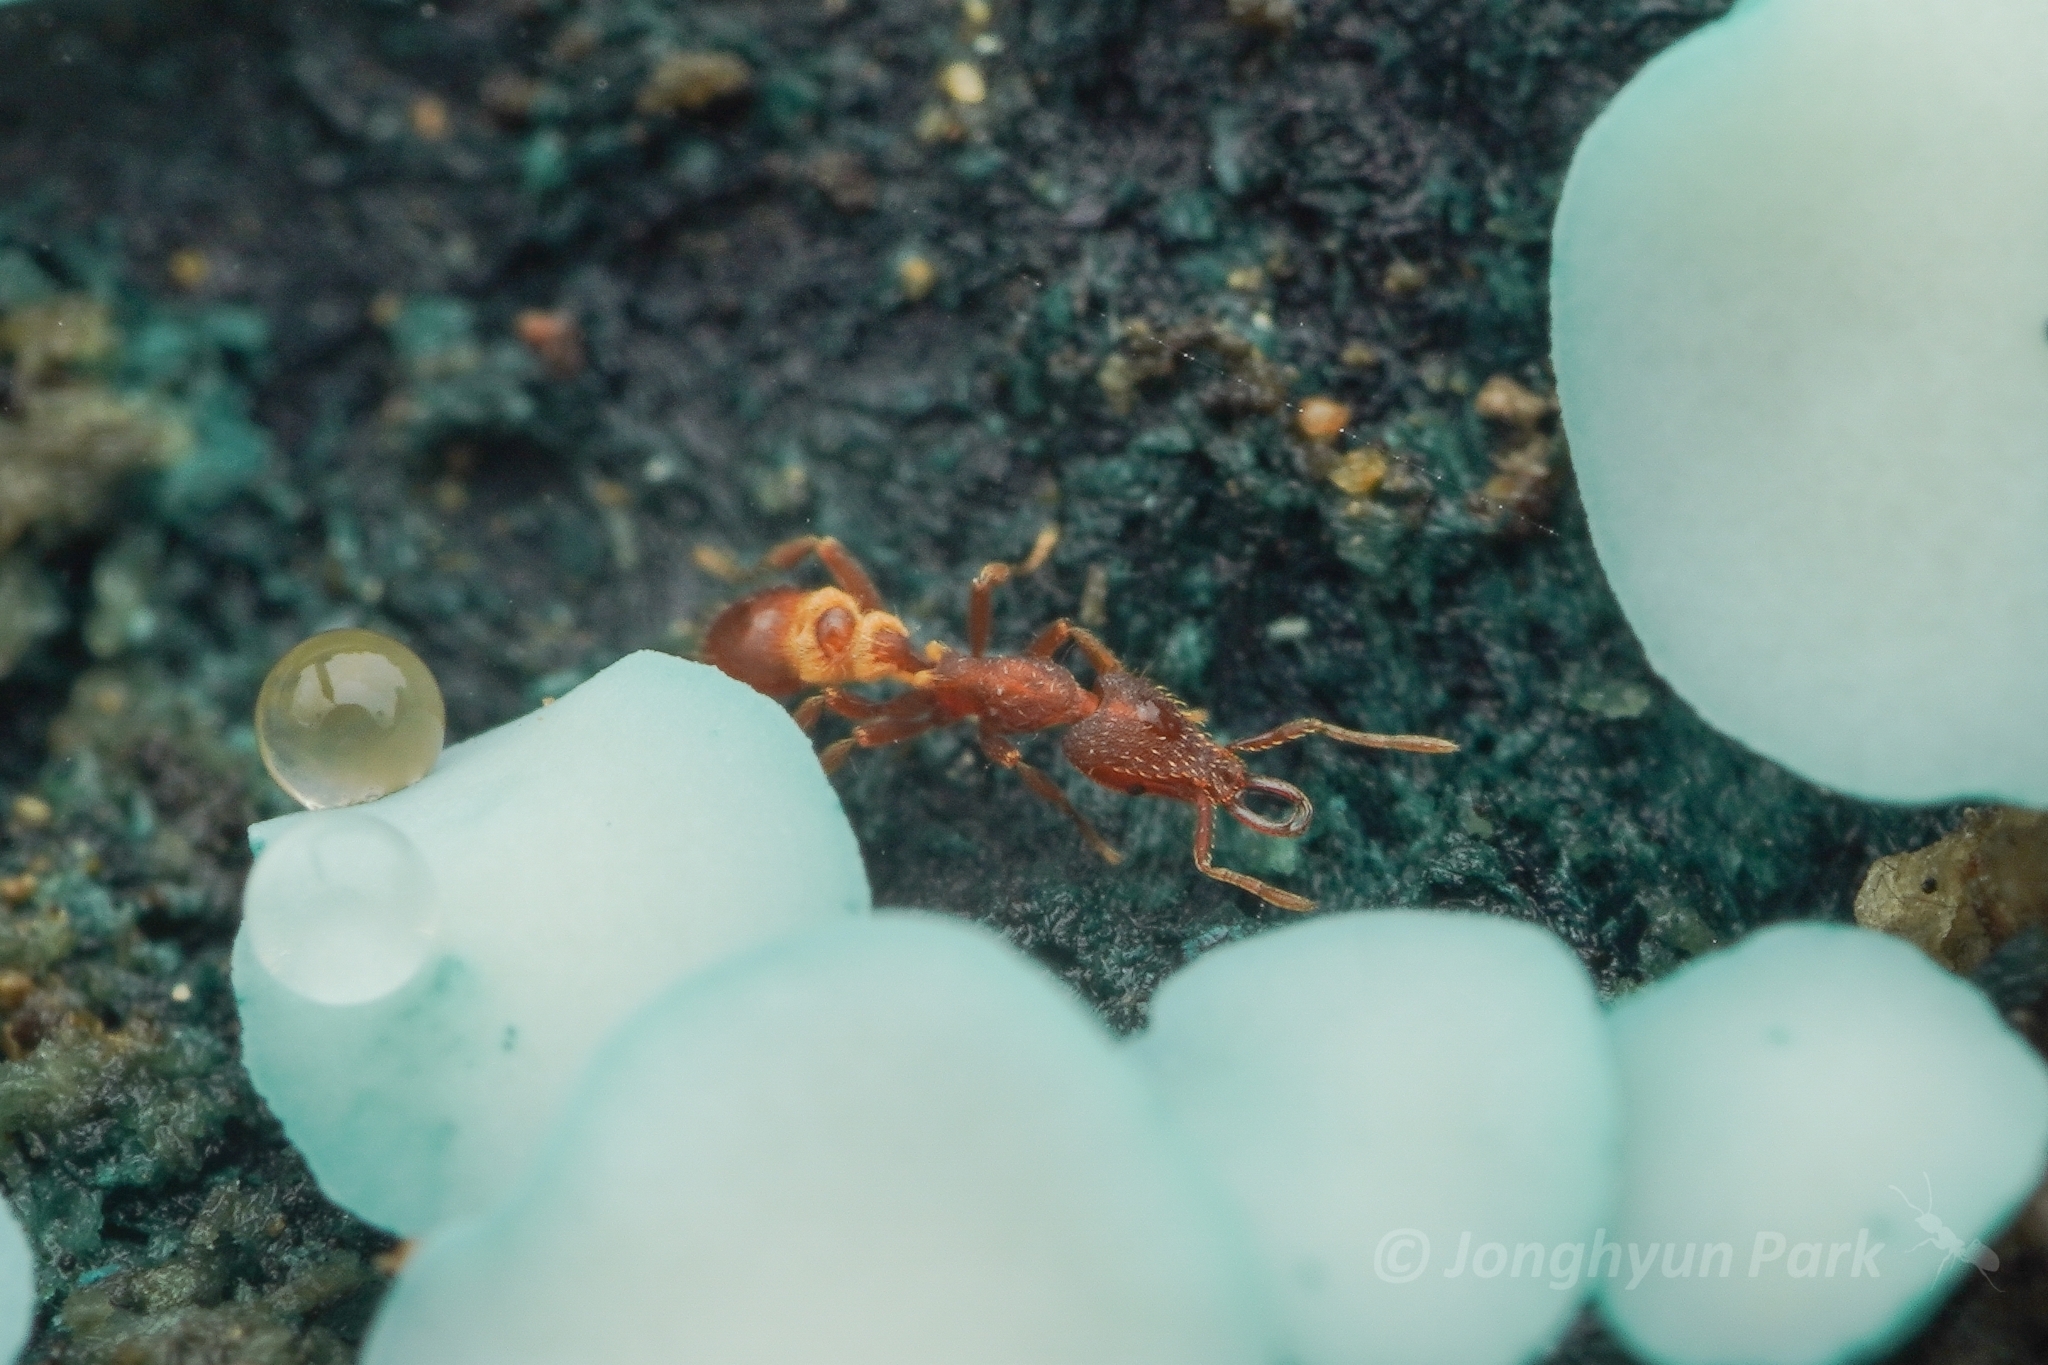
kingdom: Animalia
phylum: Arthropoda
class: Insecta
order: Hymenoptera
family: Formicidae
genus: Strumigenys
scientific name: Strumigenys kumadori
